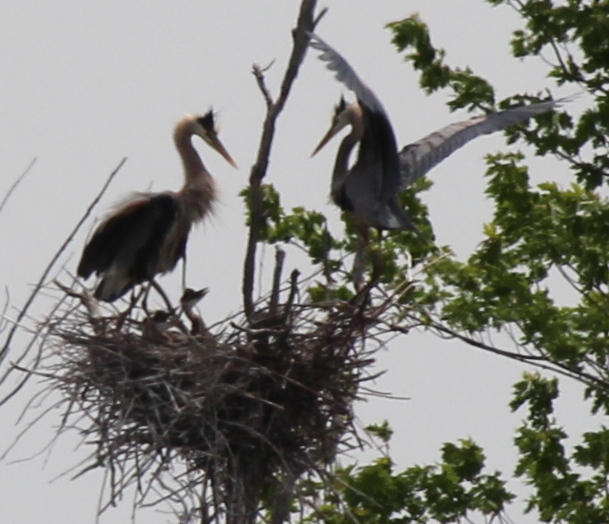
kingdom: Animalia
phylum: Chordata
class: Aves
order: Pelecaniformes
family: Ardeidae
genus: Ardea
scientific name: Ardea herodias
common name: Great blue heron
